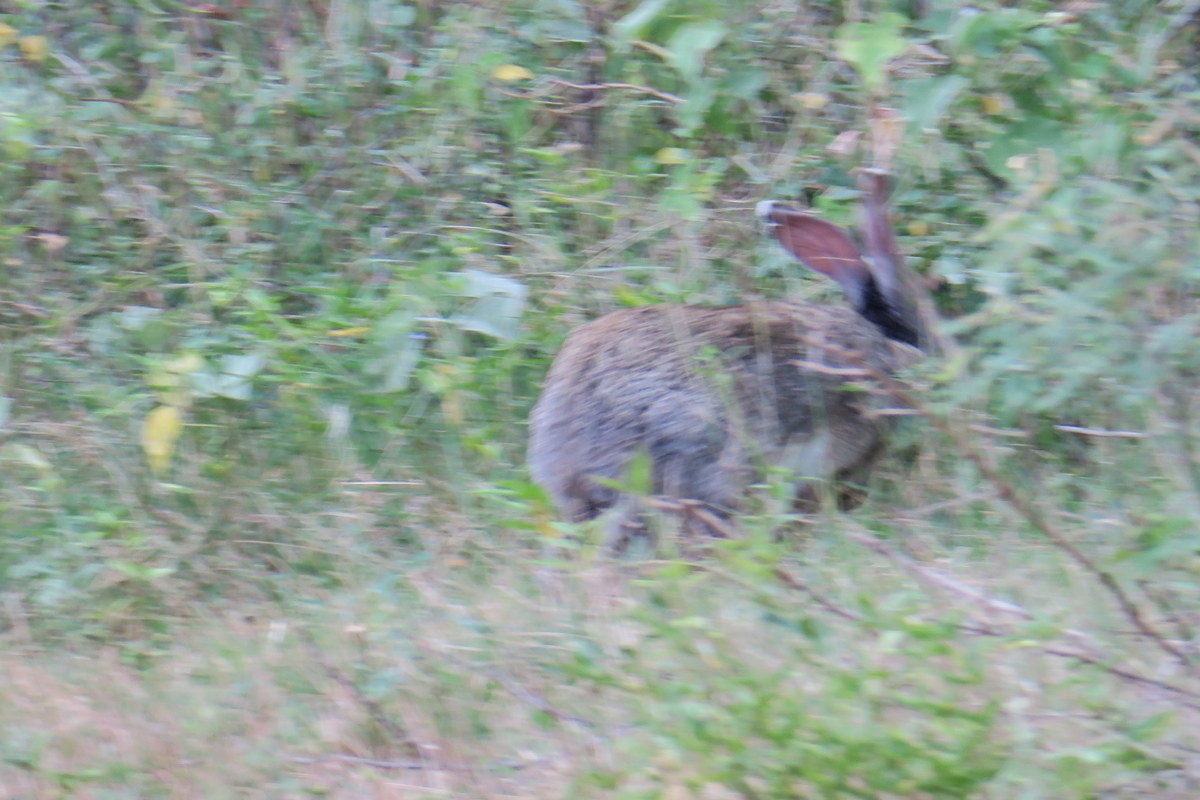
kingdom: Animalia
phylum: Chordata
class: Mammalia
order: Lagomorpha
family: Leporidae
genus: Lepus
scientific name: Lepus nigricollis
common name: Indian hare
